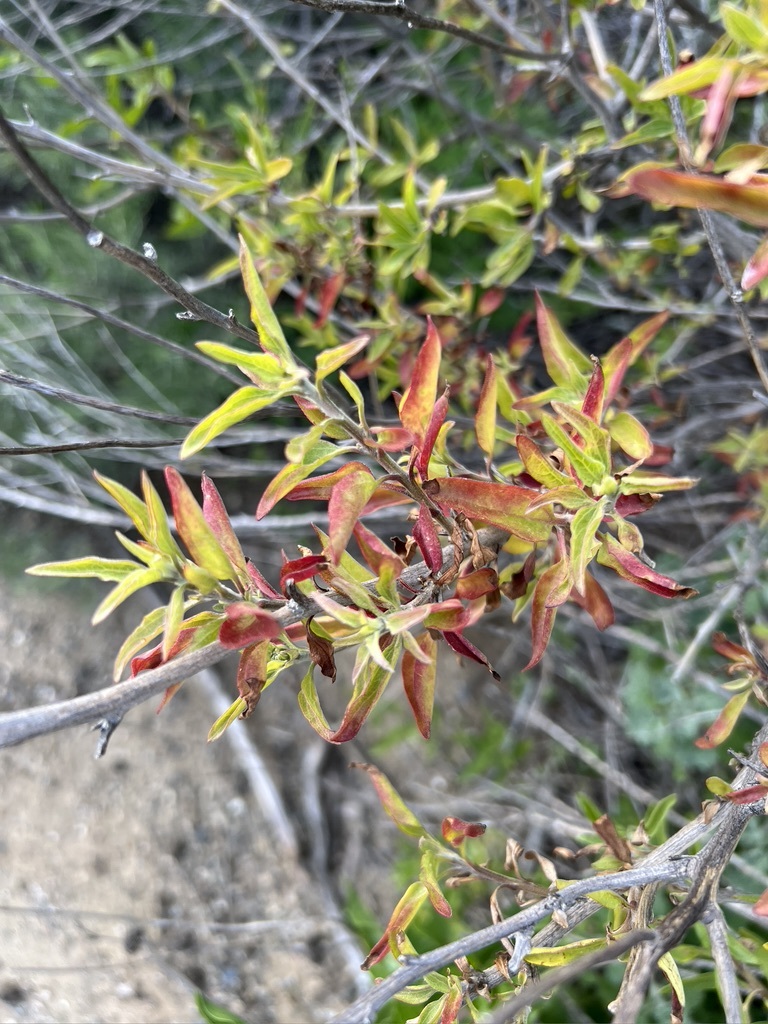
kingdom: Plantae
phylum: Tracheophyta
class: Magnoliopsida
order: Asterales
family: Asteraceae
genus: Encelia
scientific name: Encelia californica
